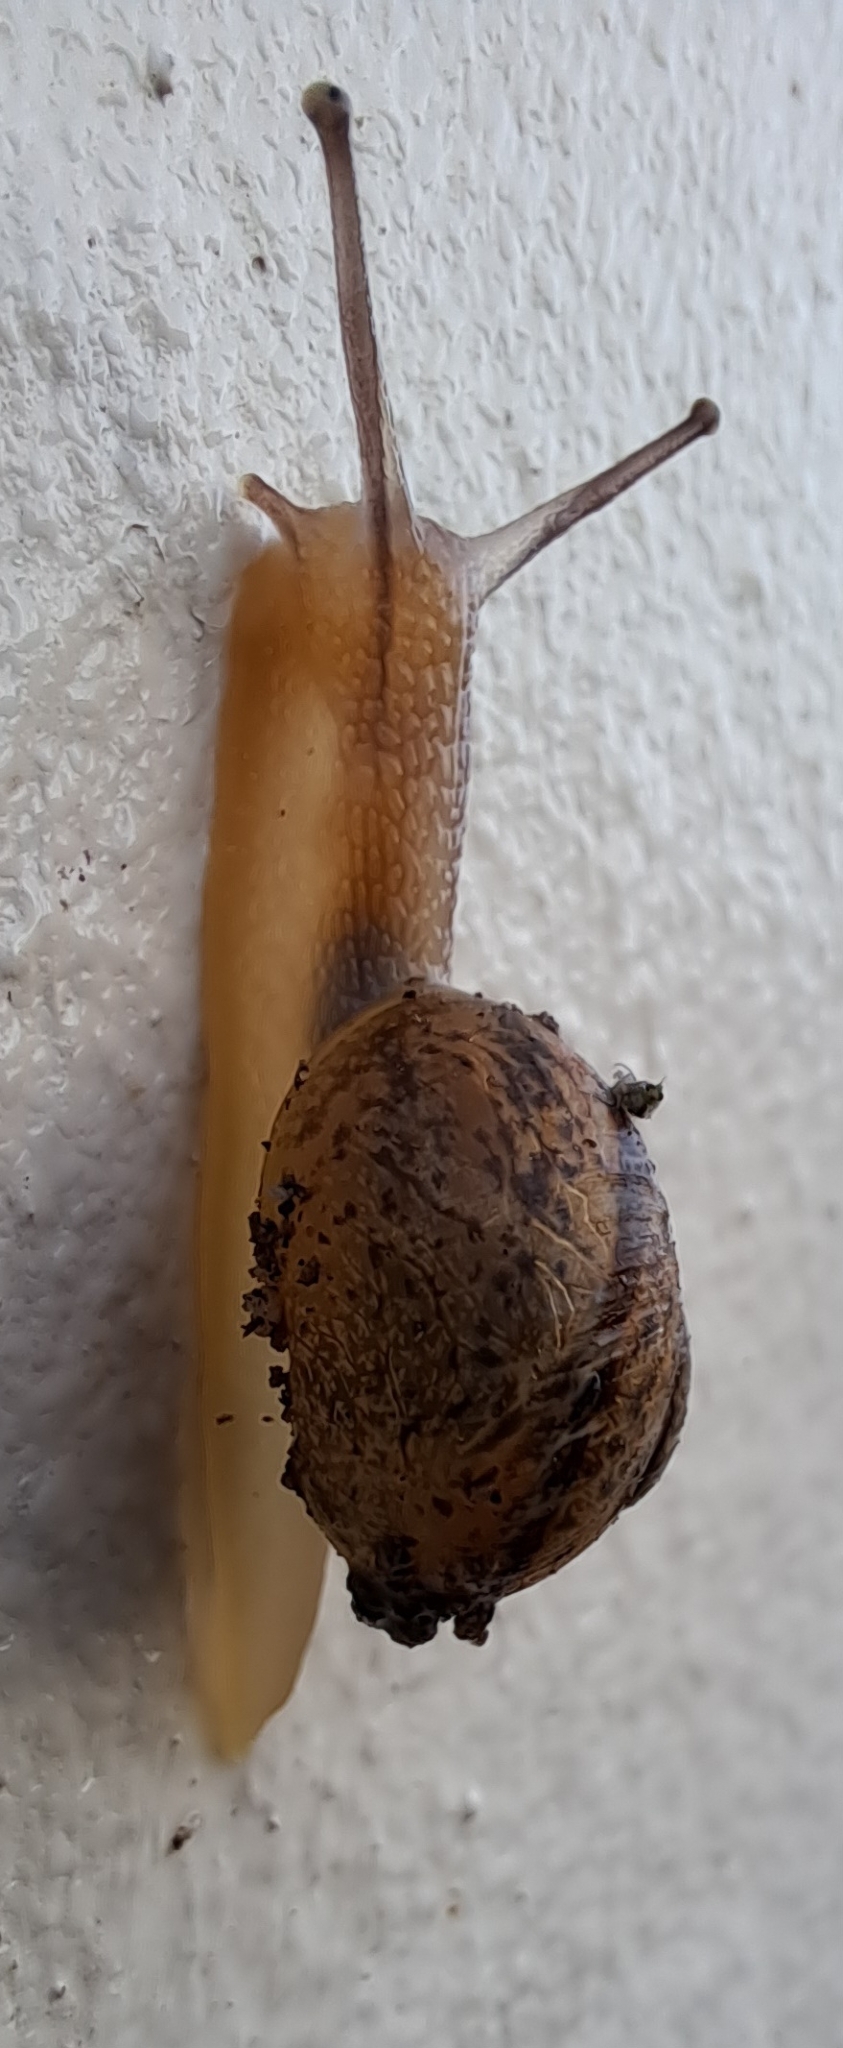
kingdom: Animalia
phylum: Mollusca
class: Gastropoda
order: Stylommatophora
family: Helicidae
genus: Cornu
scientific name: Cornu aspersum
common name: Brown garden snail
